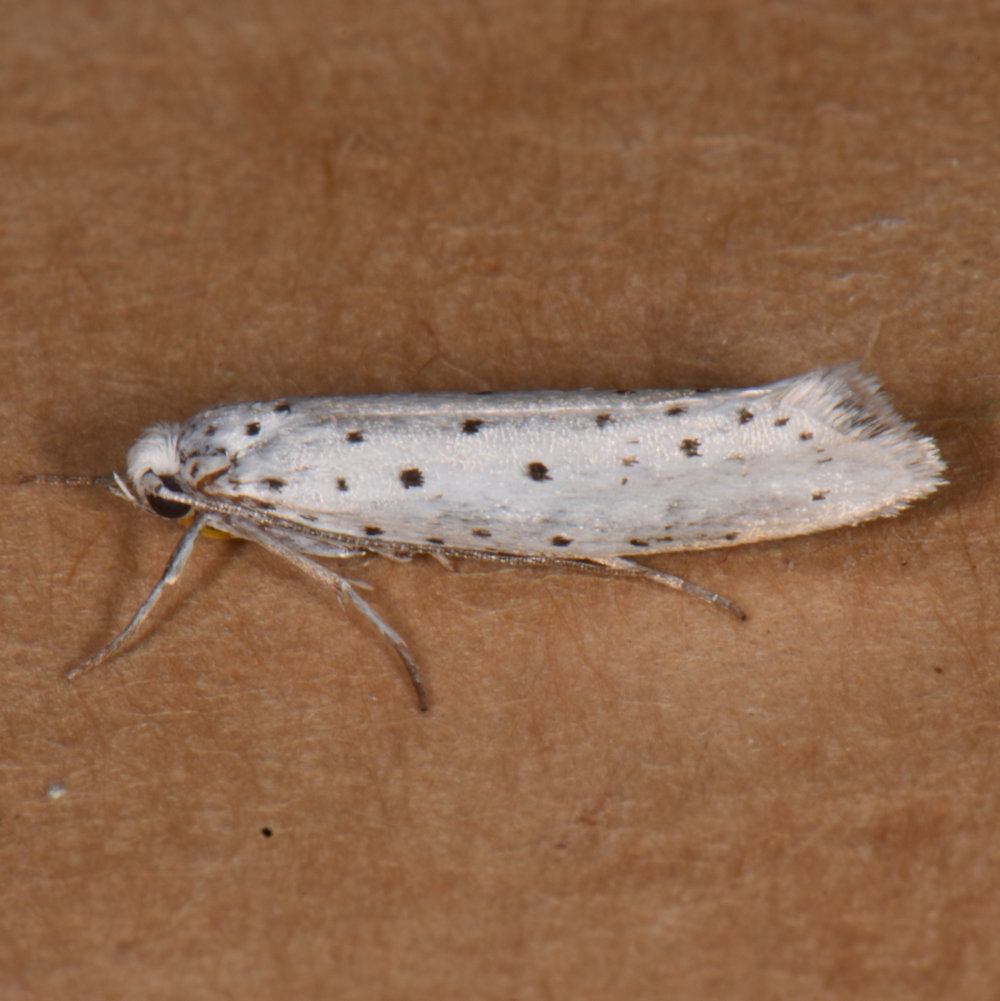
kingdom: Animalia
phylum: Arthropoda
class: Insecta
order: Lepidoptera
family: Yponomeutidae
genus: Yponomeuta
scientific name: Yponomeuta cagnagellus
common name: Spindle ermine
